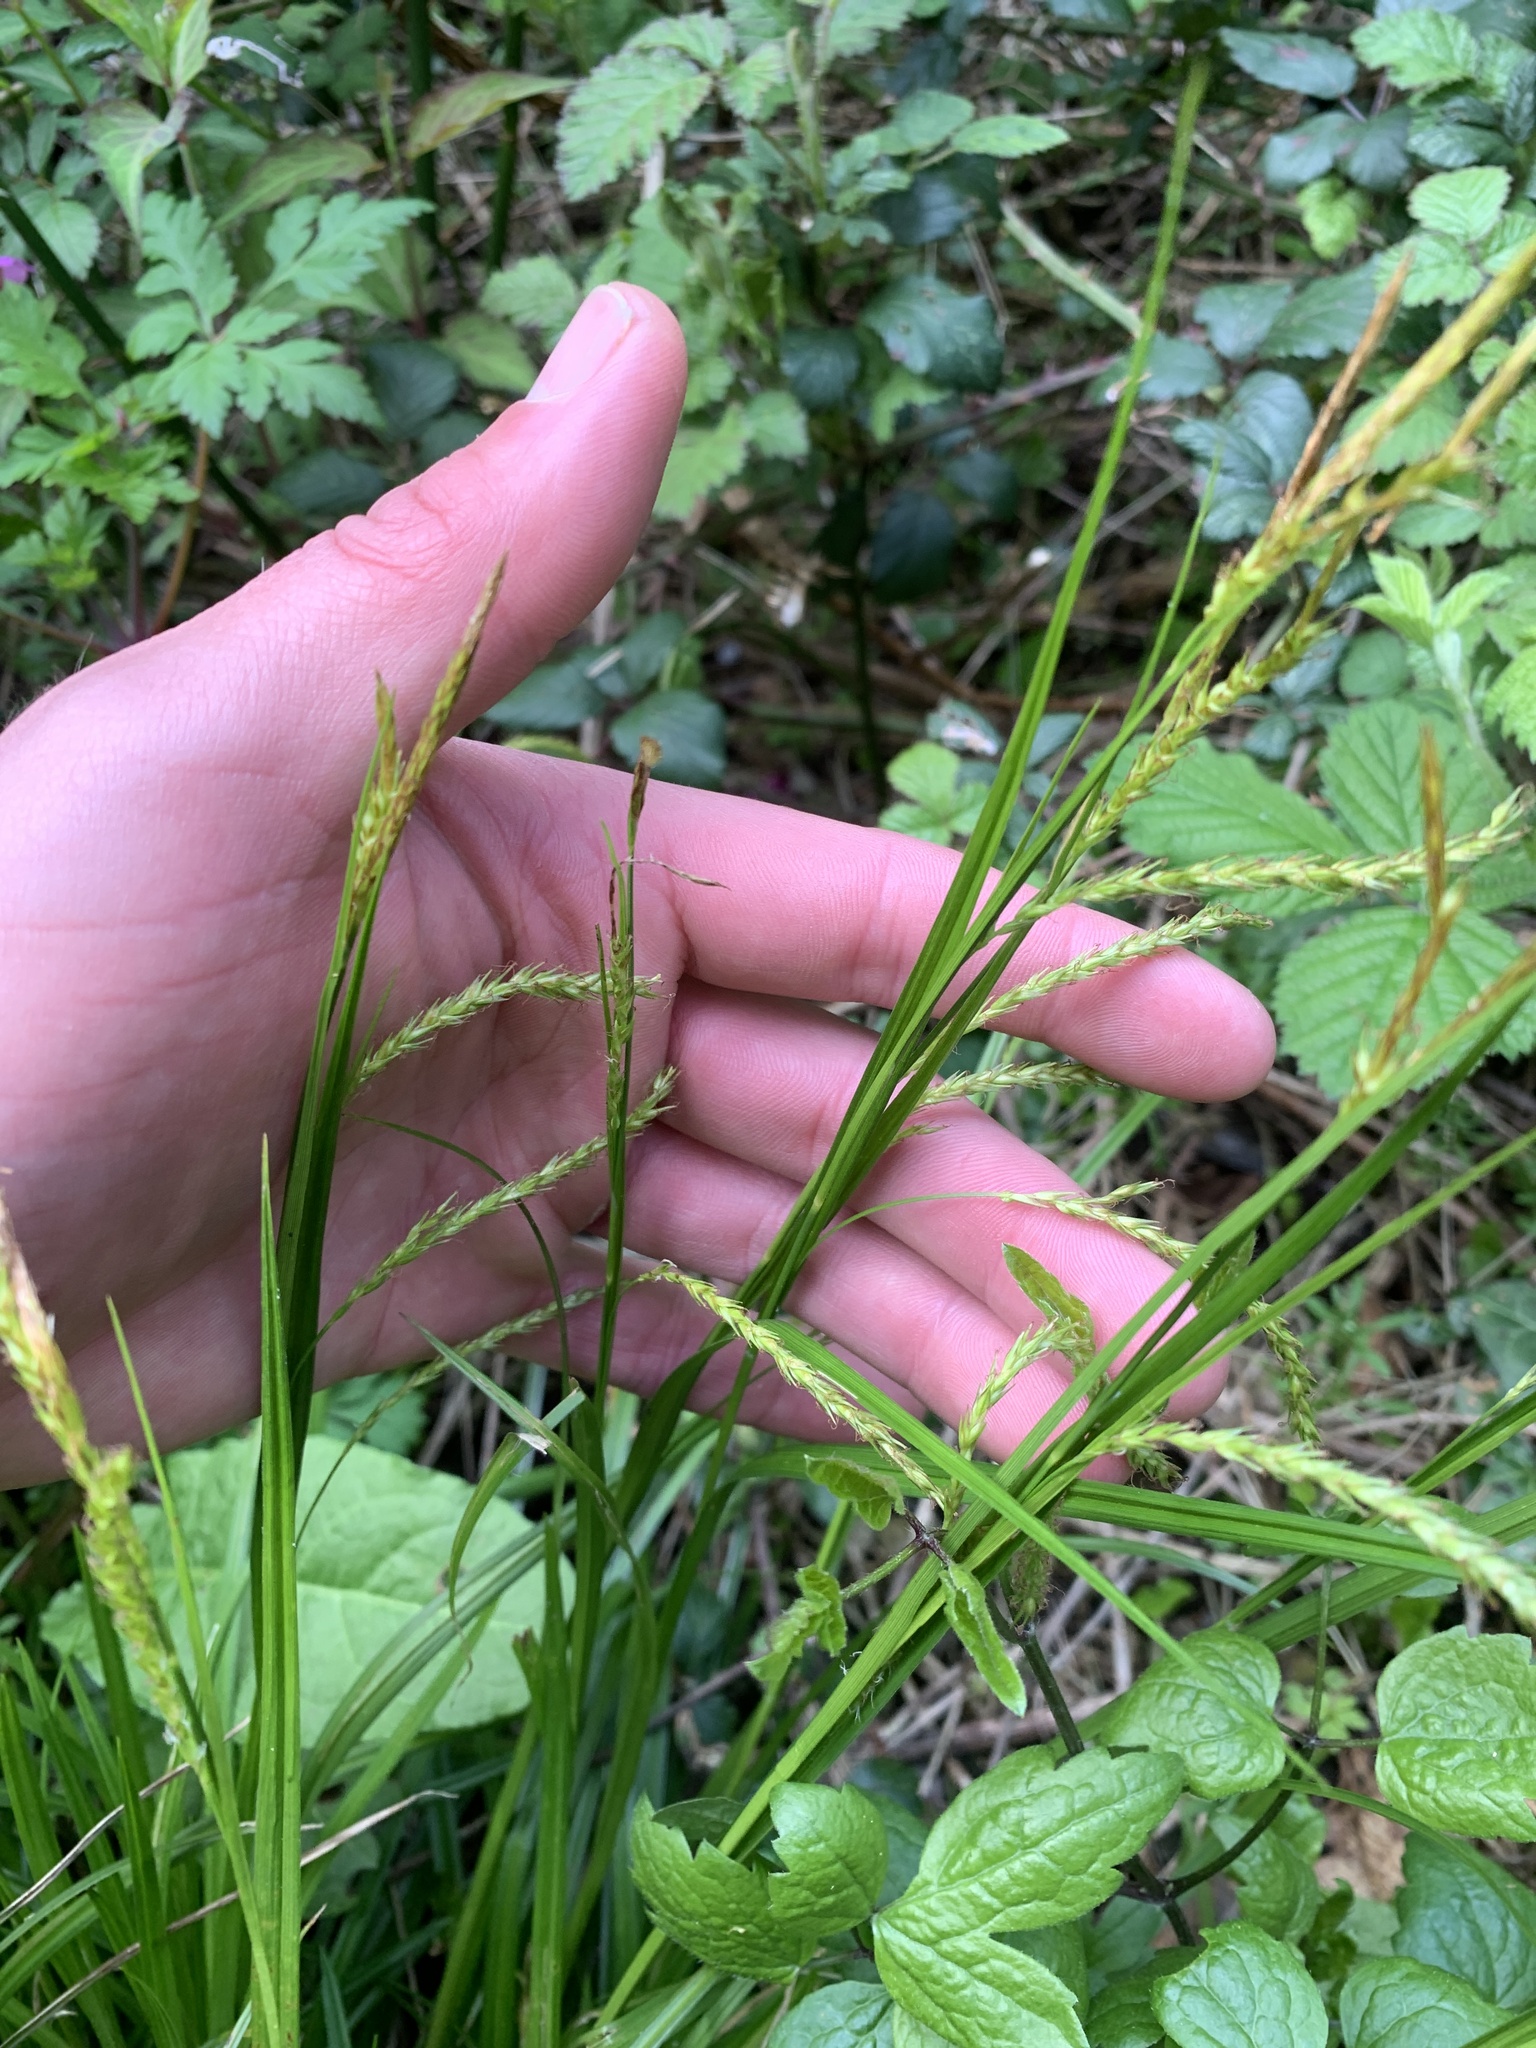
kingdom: Plantae
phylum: Tracheophyta
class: Liliopsida
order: Poales
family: Cyperaceae
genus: Carex
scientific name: Carex sylvatica
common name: Wood-sedge
